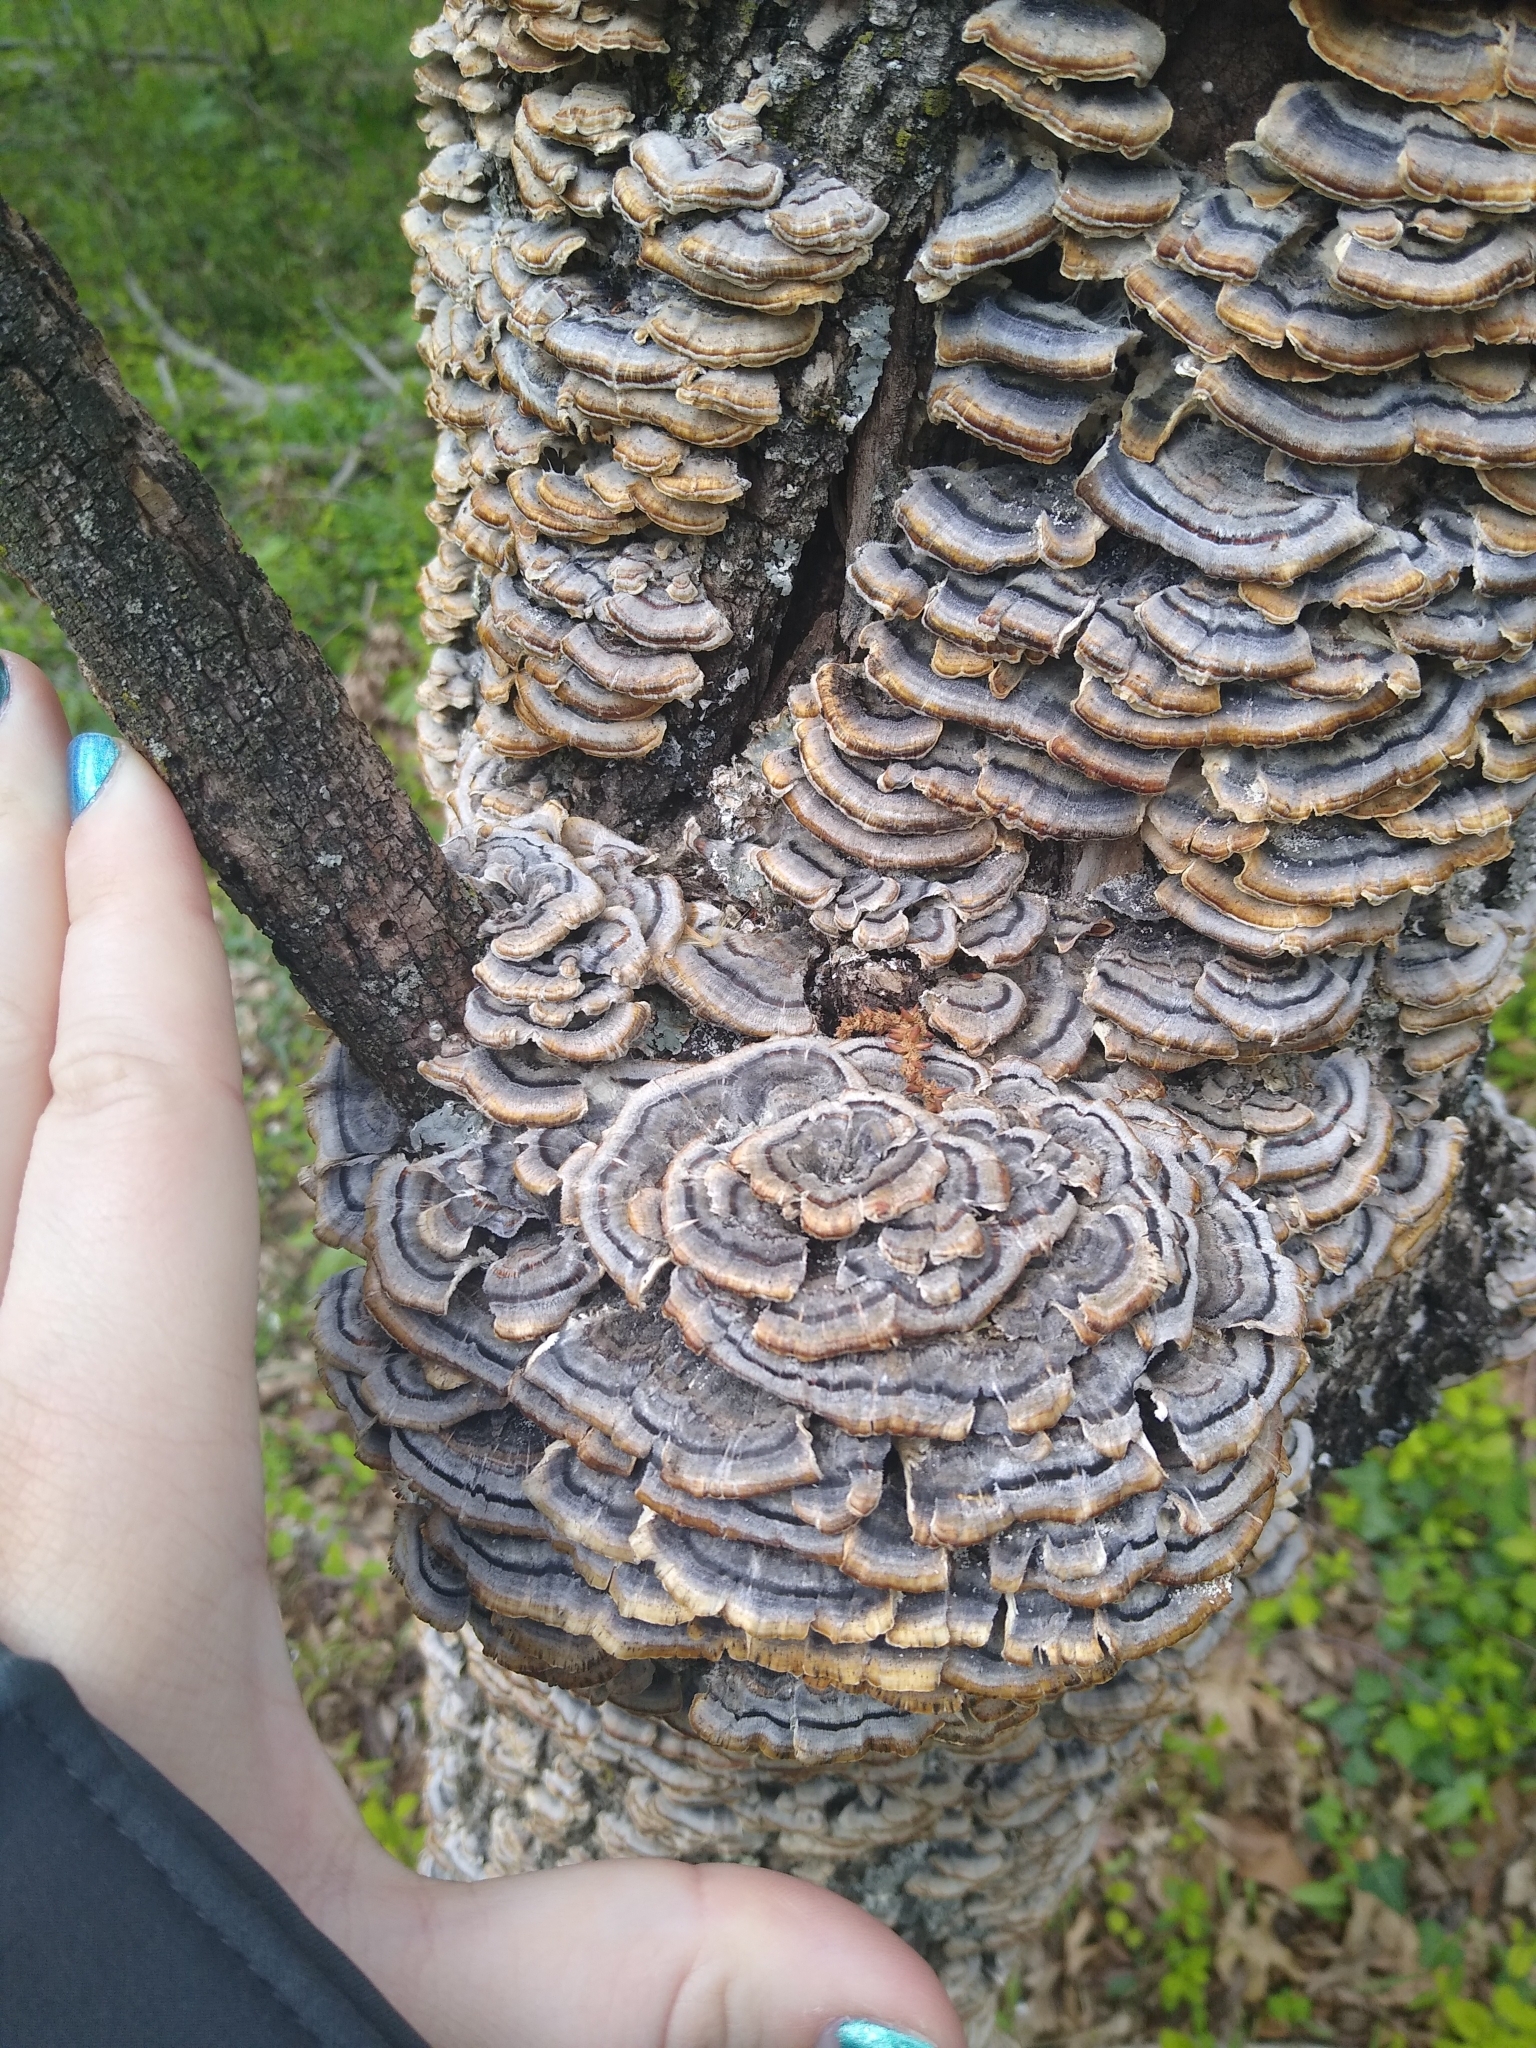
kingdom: Fungi
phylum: Basidiomycota
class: Agaricomycetes
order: Polyporales
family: Polyporaceae
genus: Trametes
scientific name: Trametes versicolor
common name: Turkeytail
